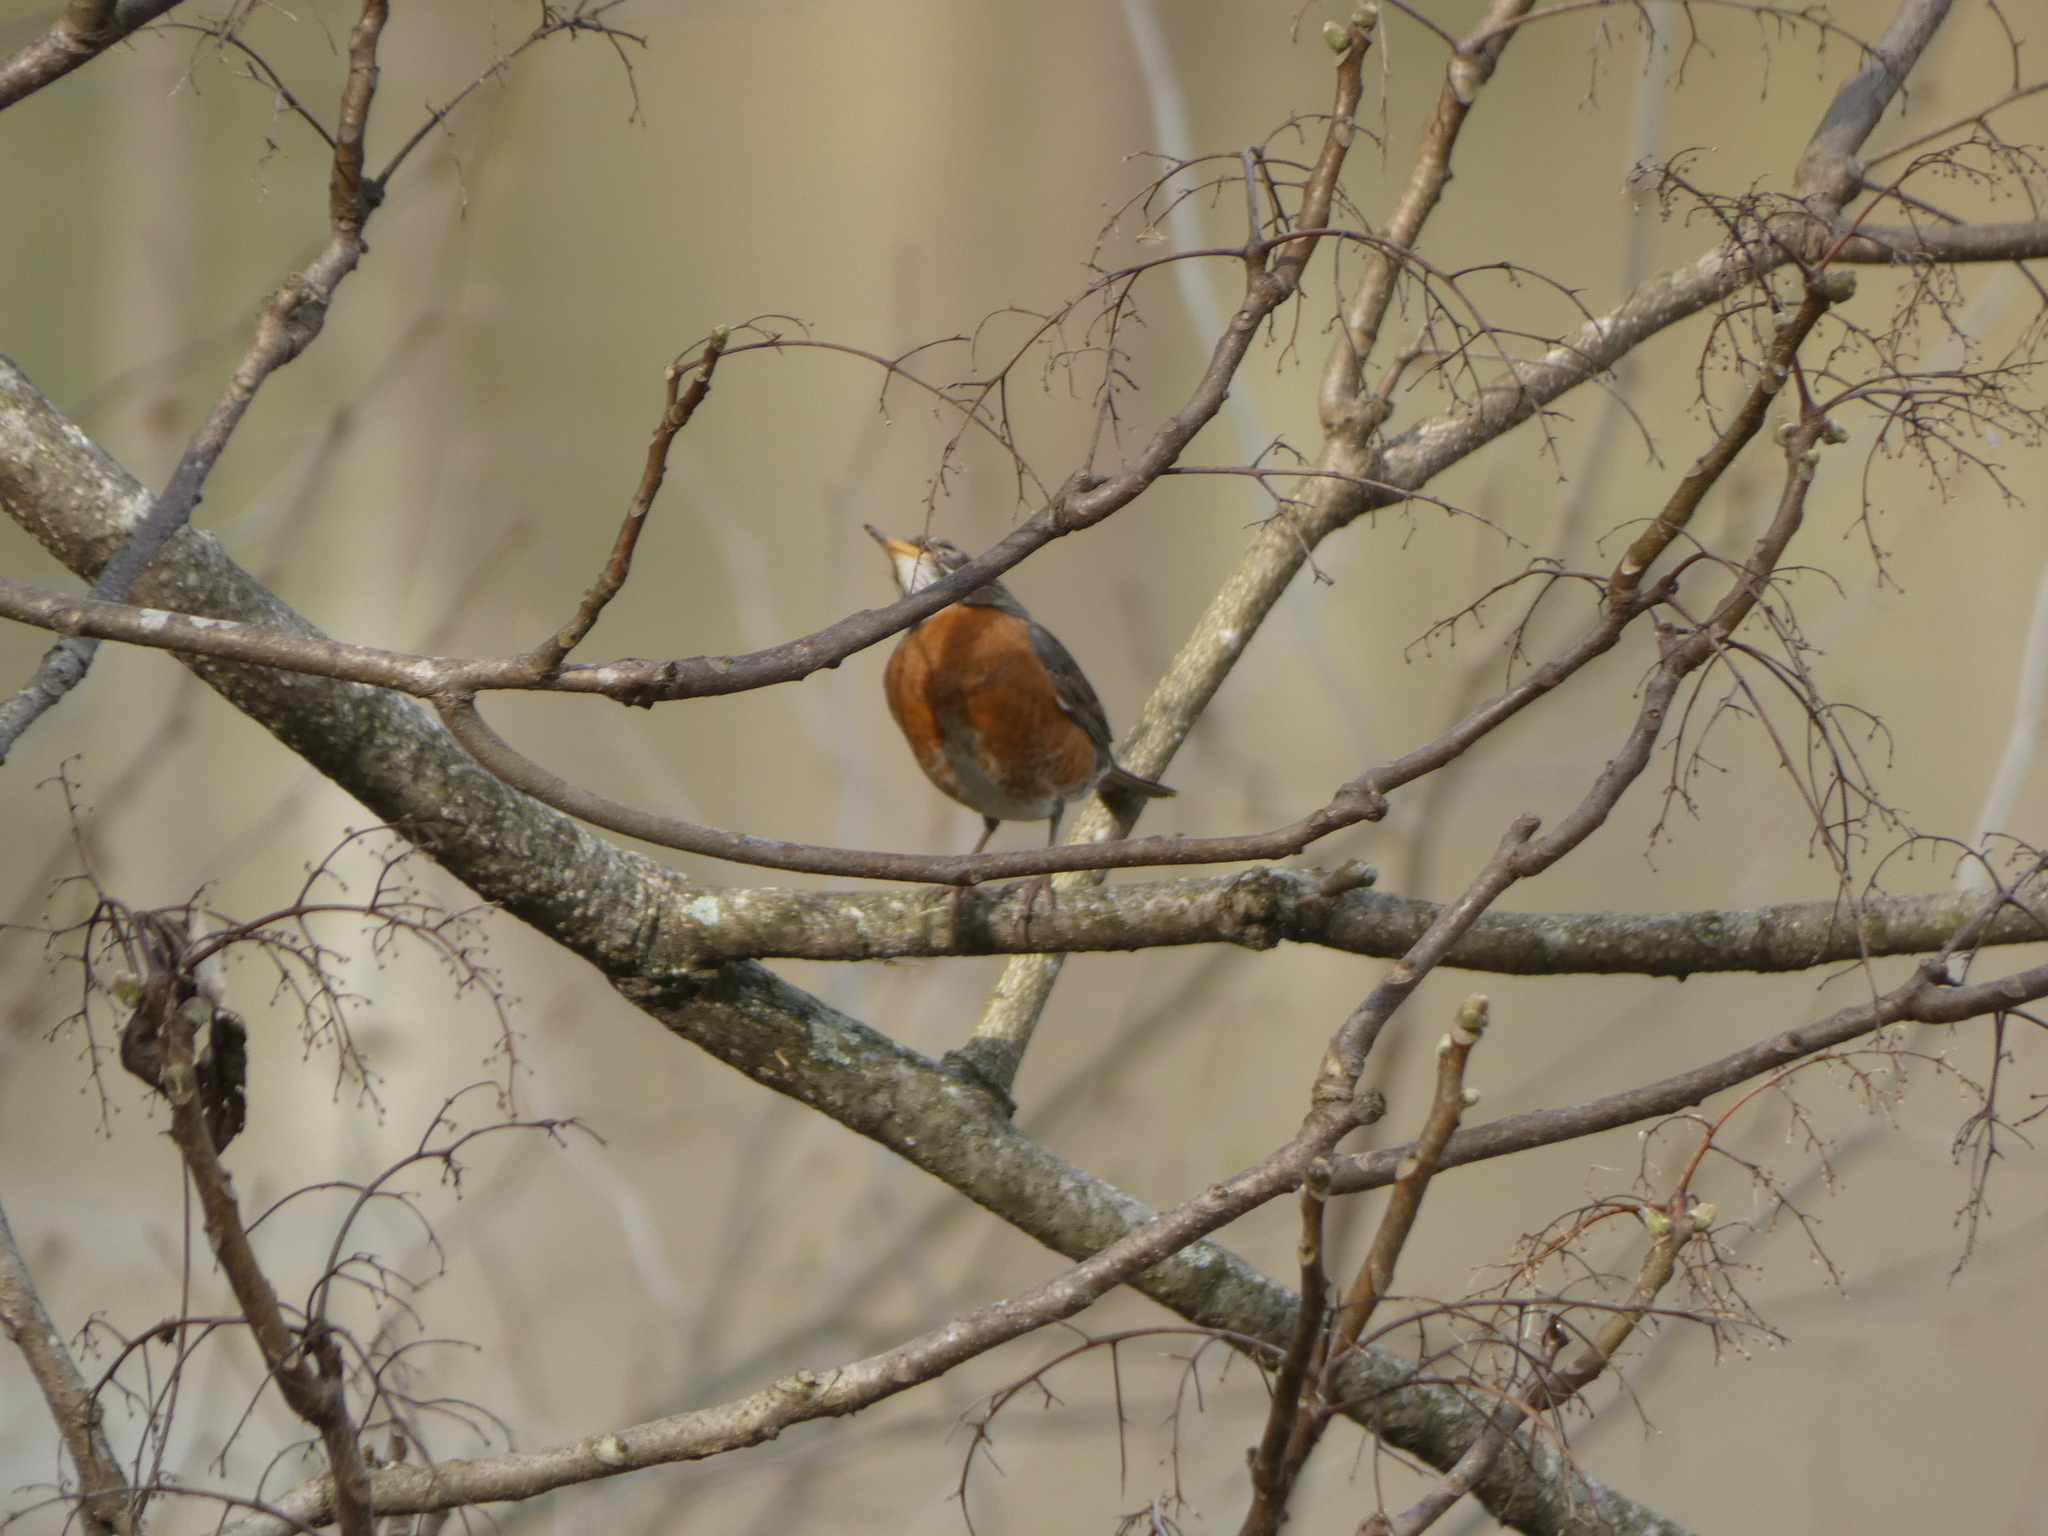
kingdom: Animalia
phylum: Chordata
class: Aves
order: Passeriformes
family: Turdidae
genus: Turdus
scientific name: Turdus migratorius
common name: American robin
